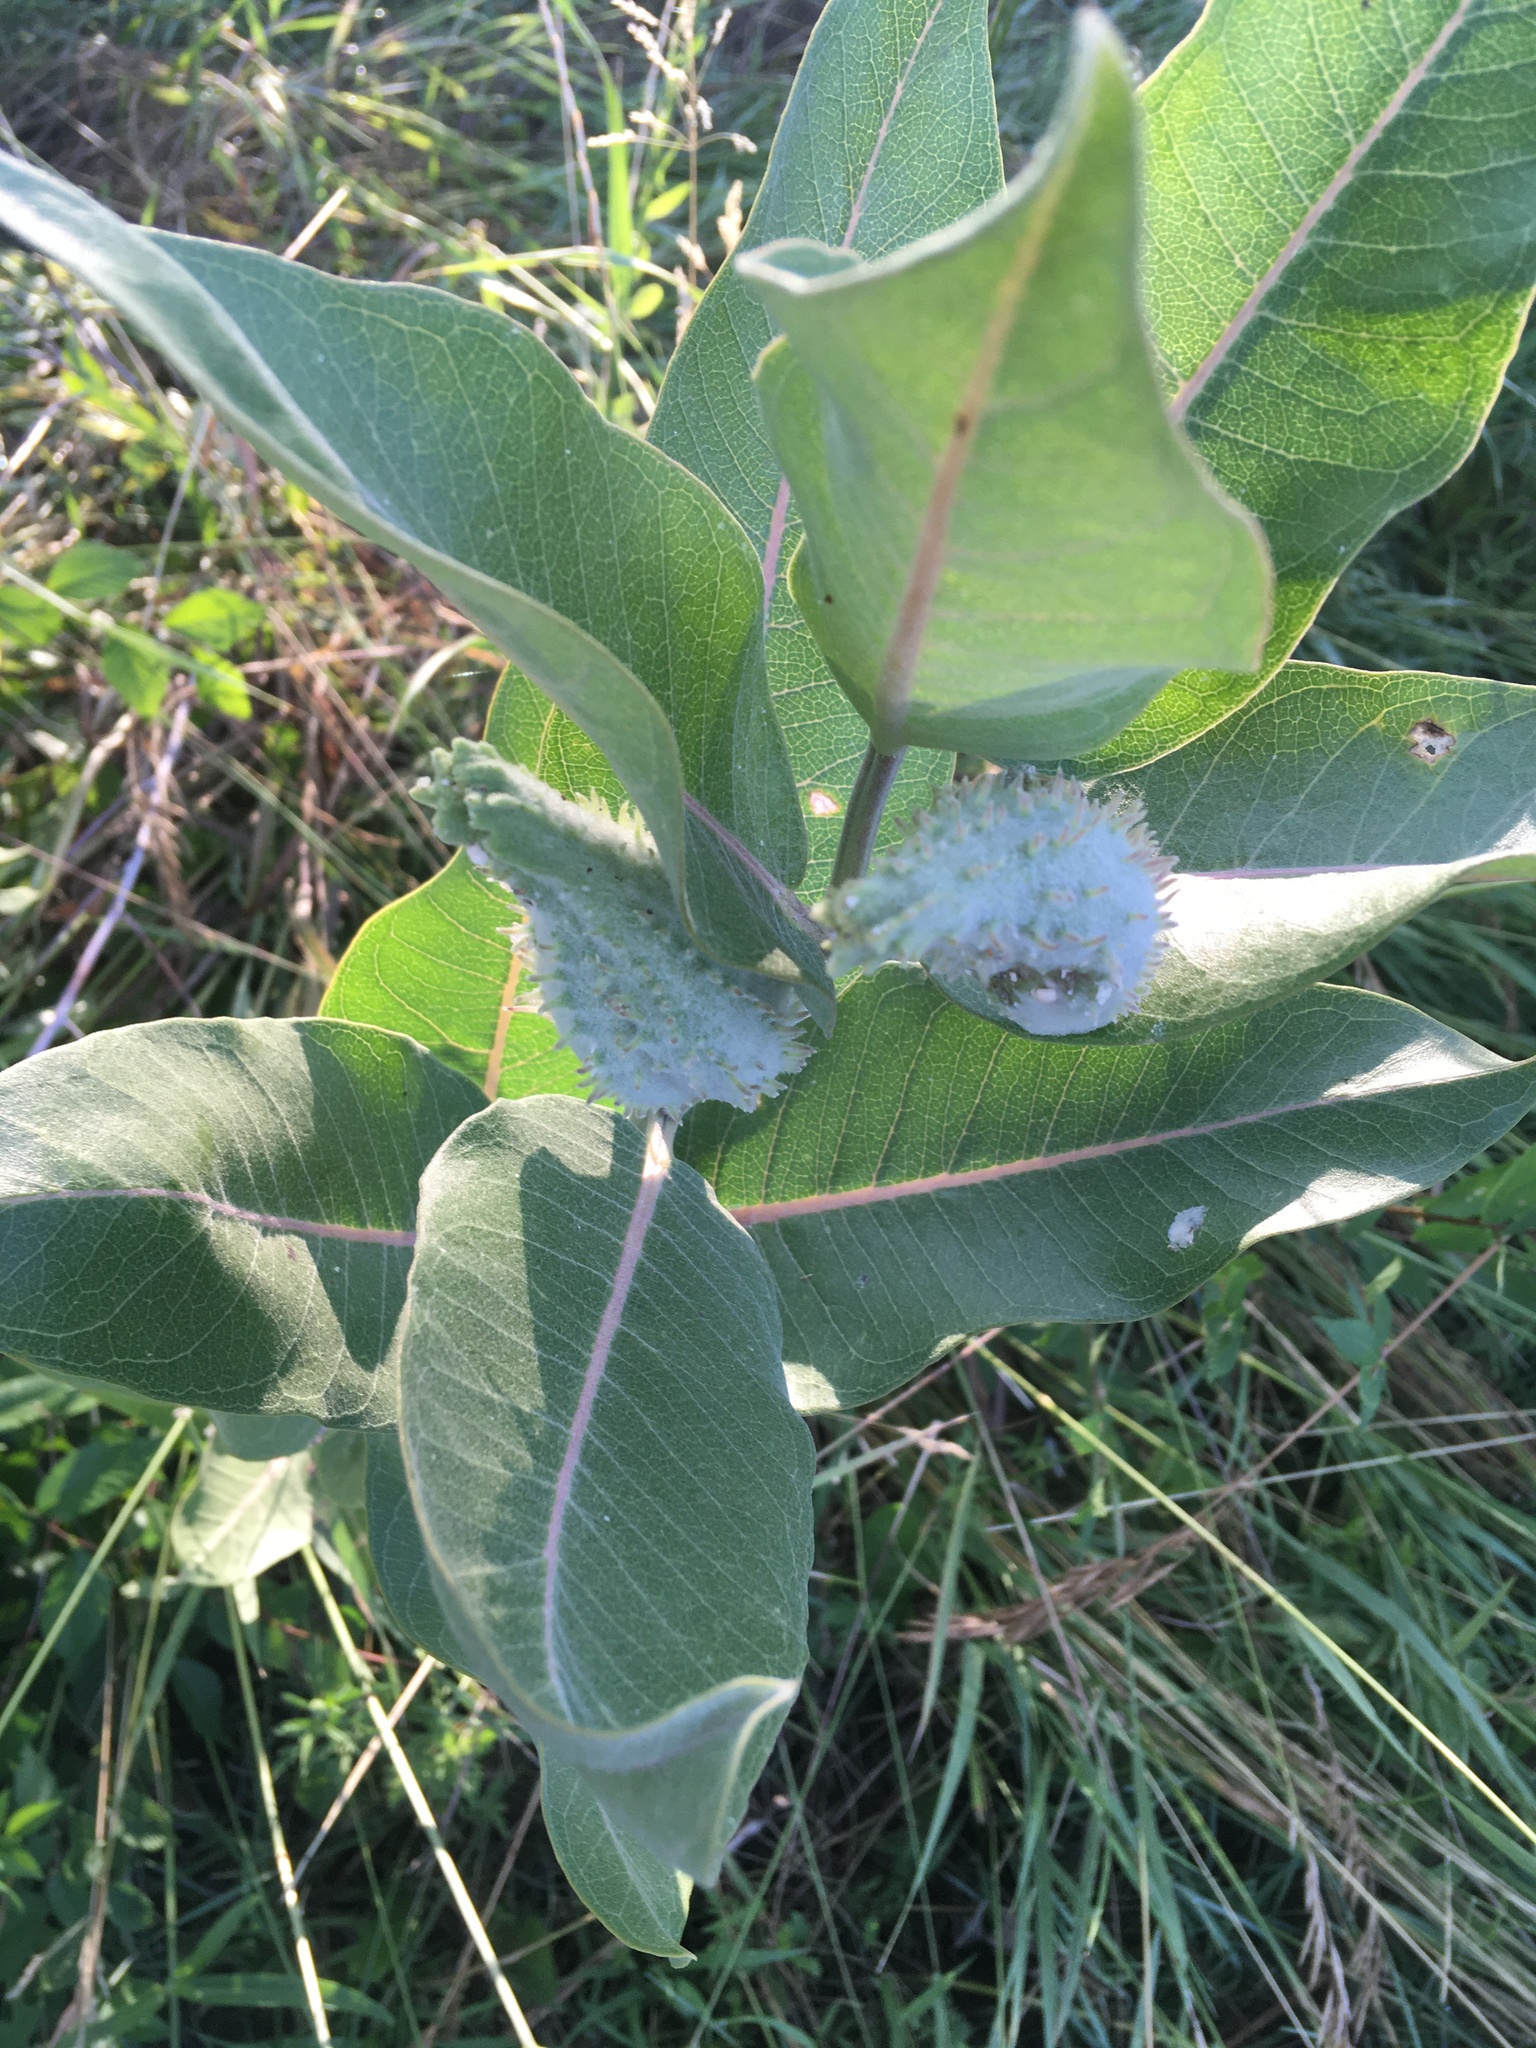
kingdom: Plantae
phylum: Tracheophyta
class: Magnoliopsida
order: Gentianales
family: Apocynaceae
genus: Asclepias
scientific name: Asclepias speciosa
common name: Showy milkweed
